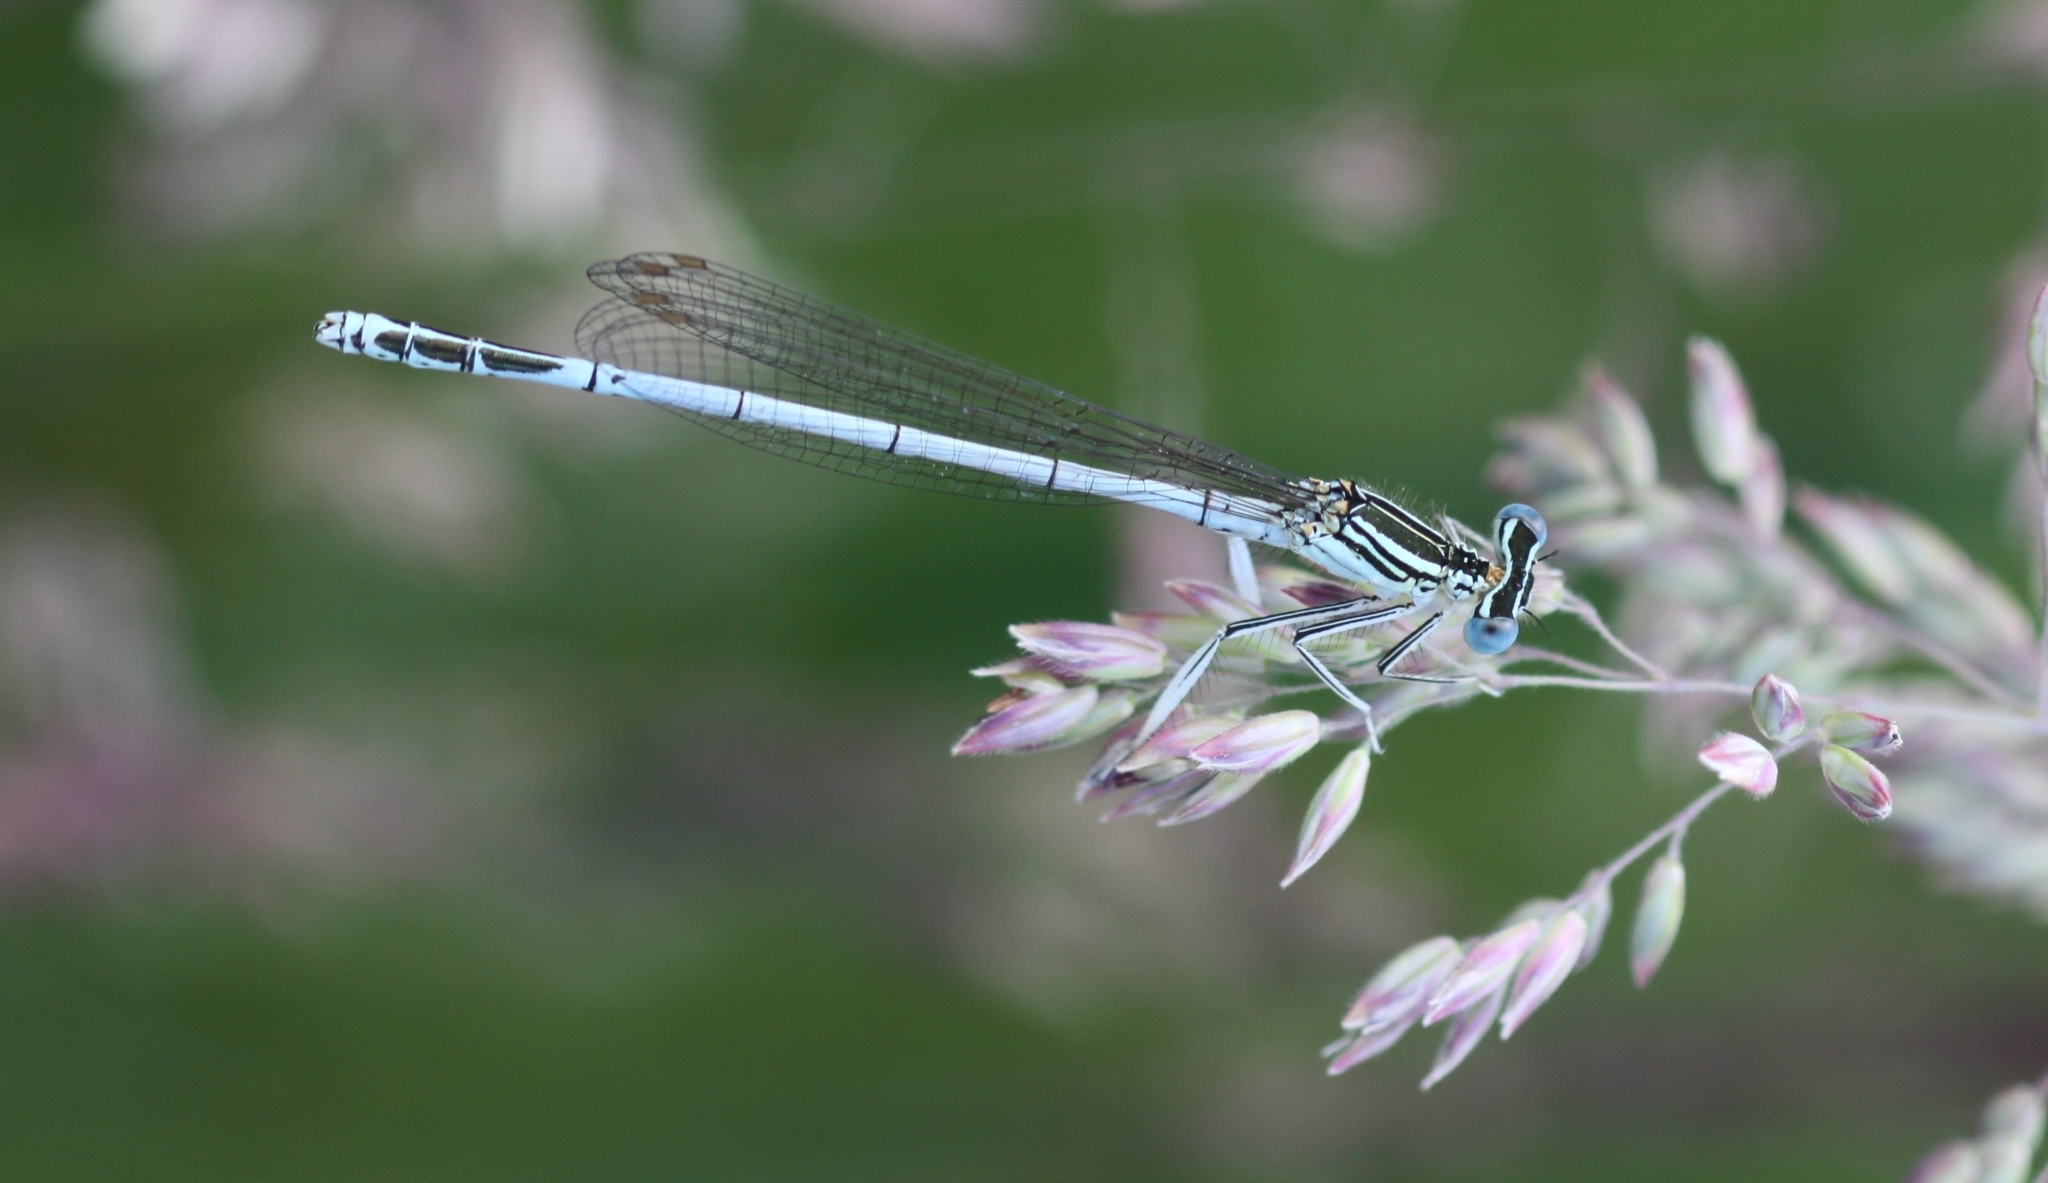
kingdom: Animalia
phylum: Arthropoda
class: Insecta
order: Odonata
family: Platycnemididae
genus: Platycnemis
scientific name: Platycnemis pennipes
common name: White-legged damselfly
